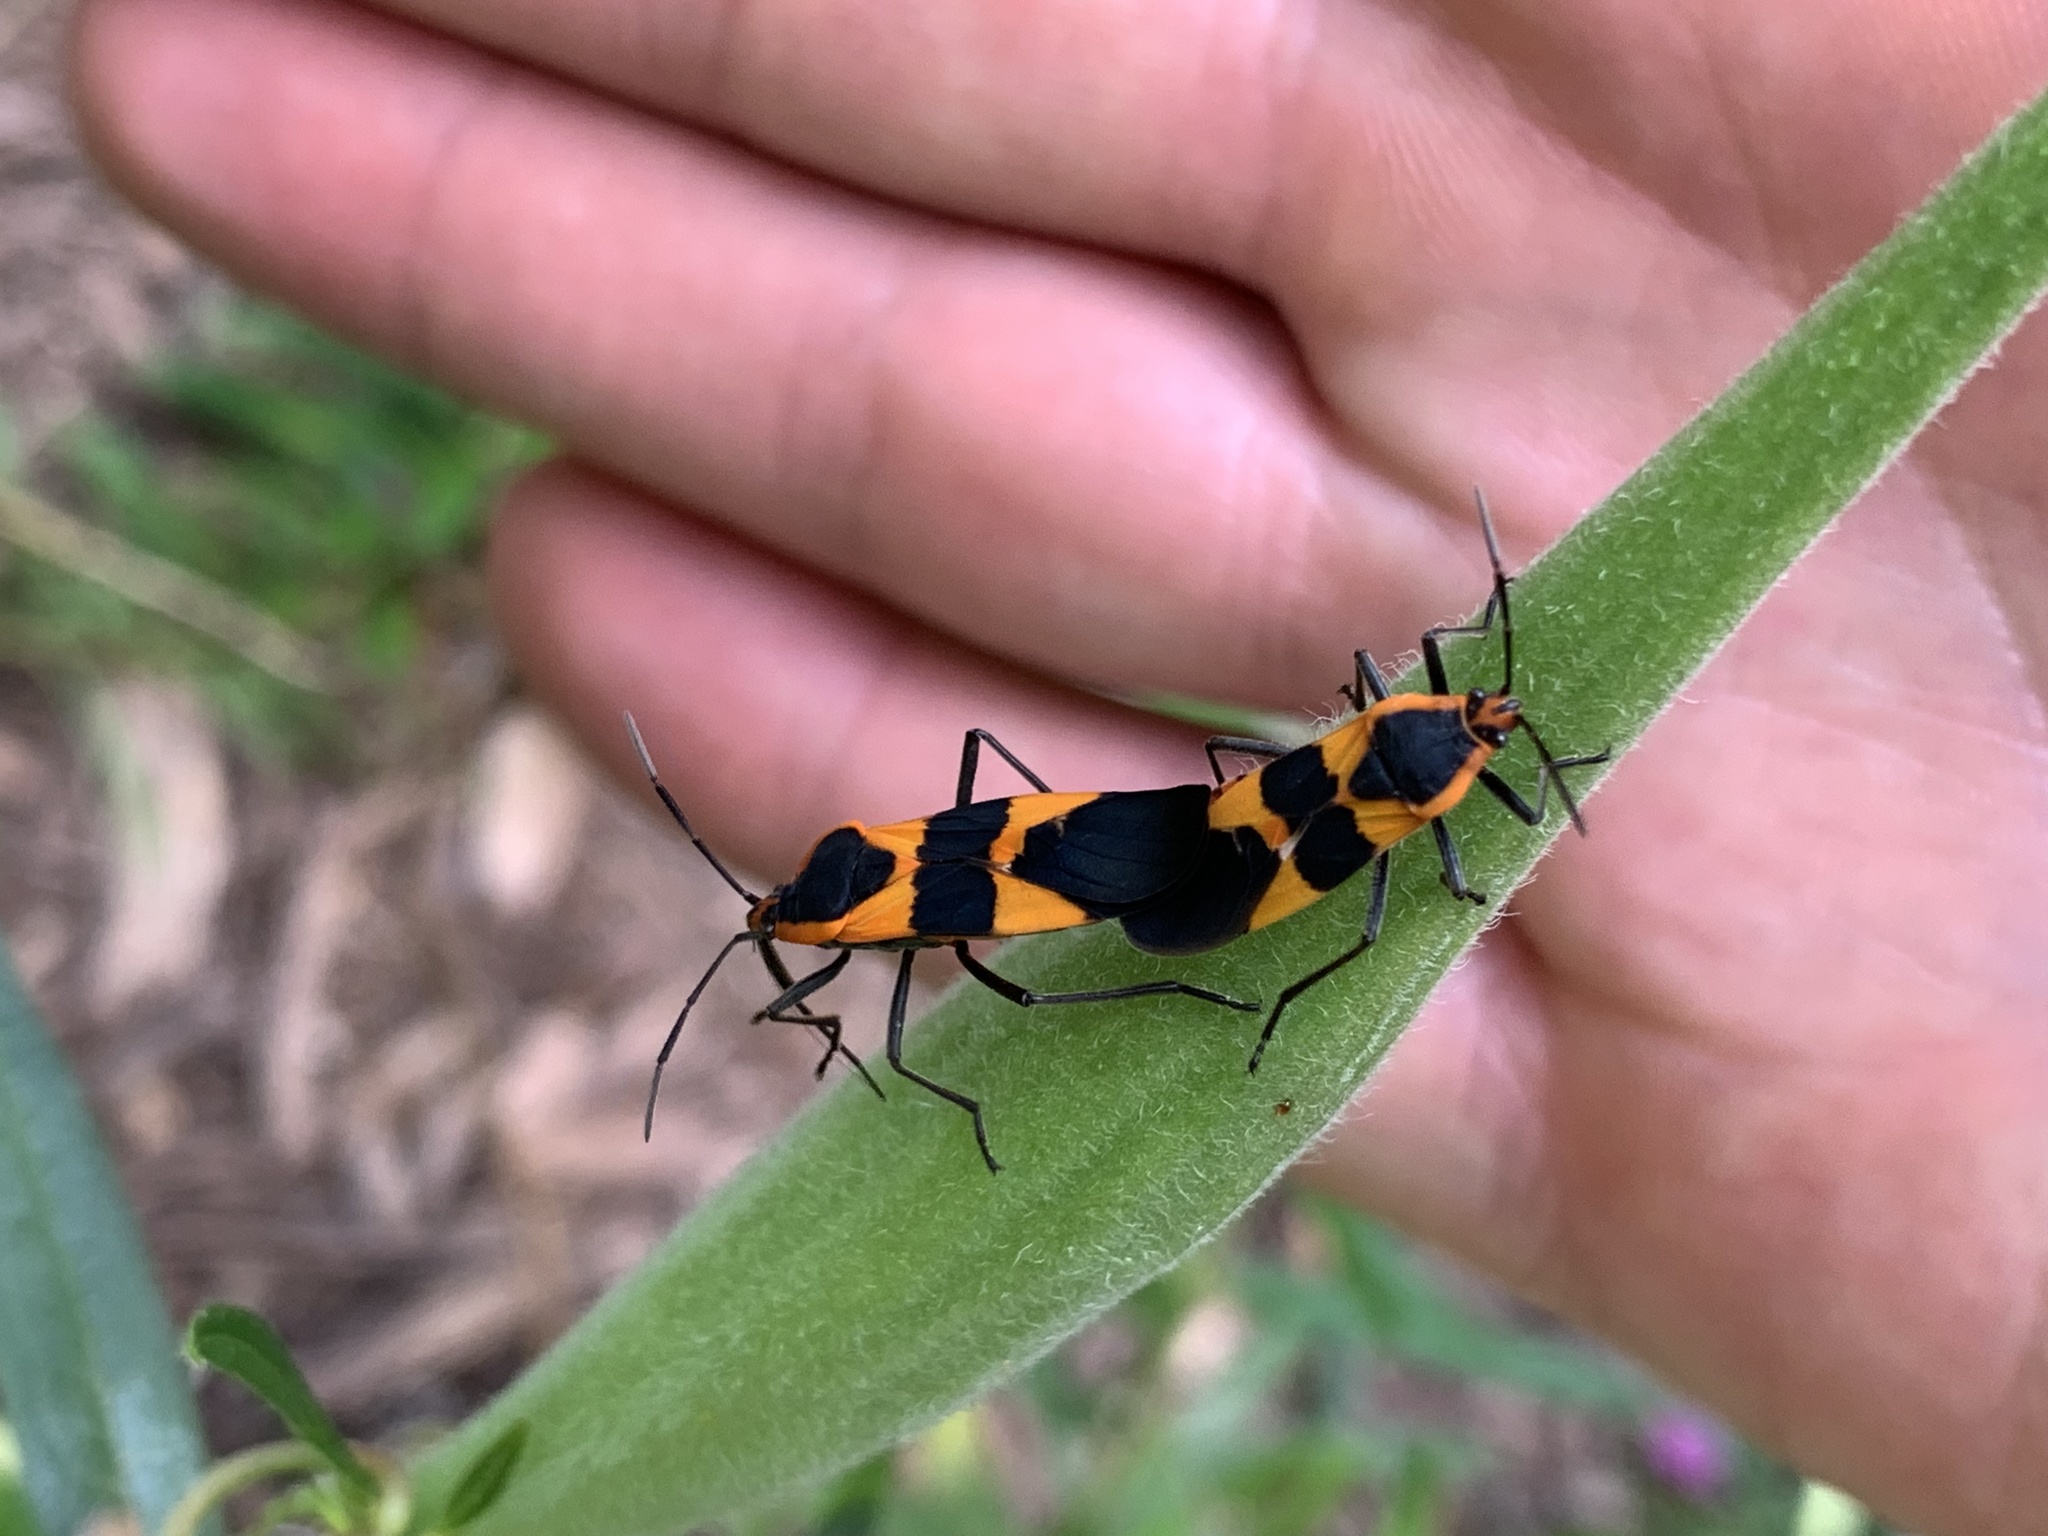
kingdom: Animalia
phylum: Arthropoda
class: Insecta
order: Hemiptera
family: Lygaeidae
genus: Oncopeltus
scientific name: Oncopeltus fasciatus
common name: Large milkweed bug
